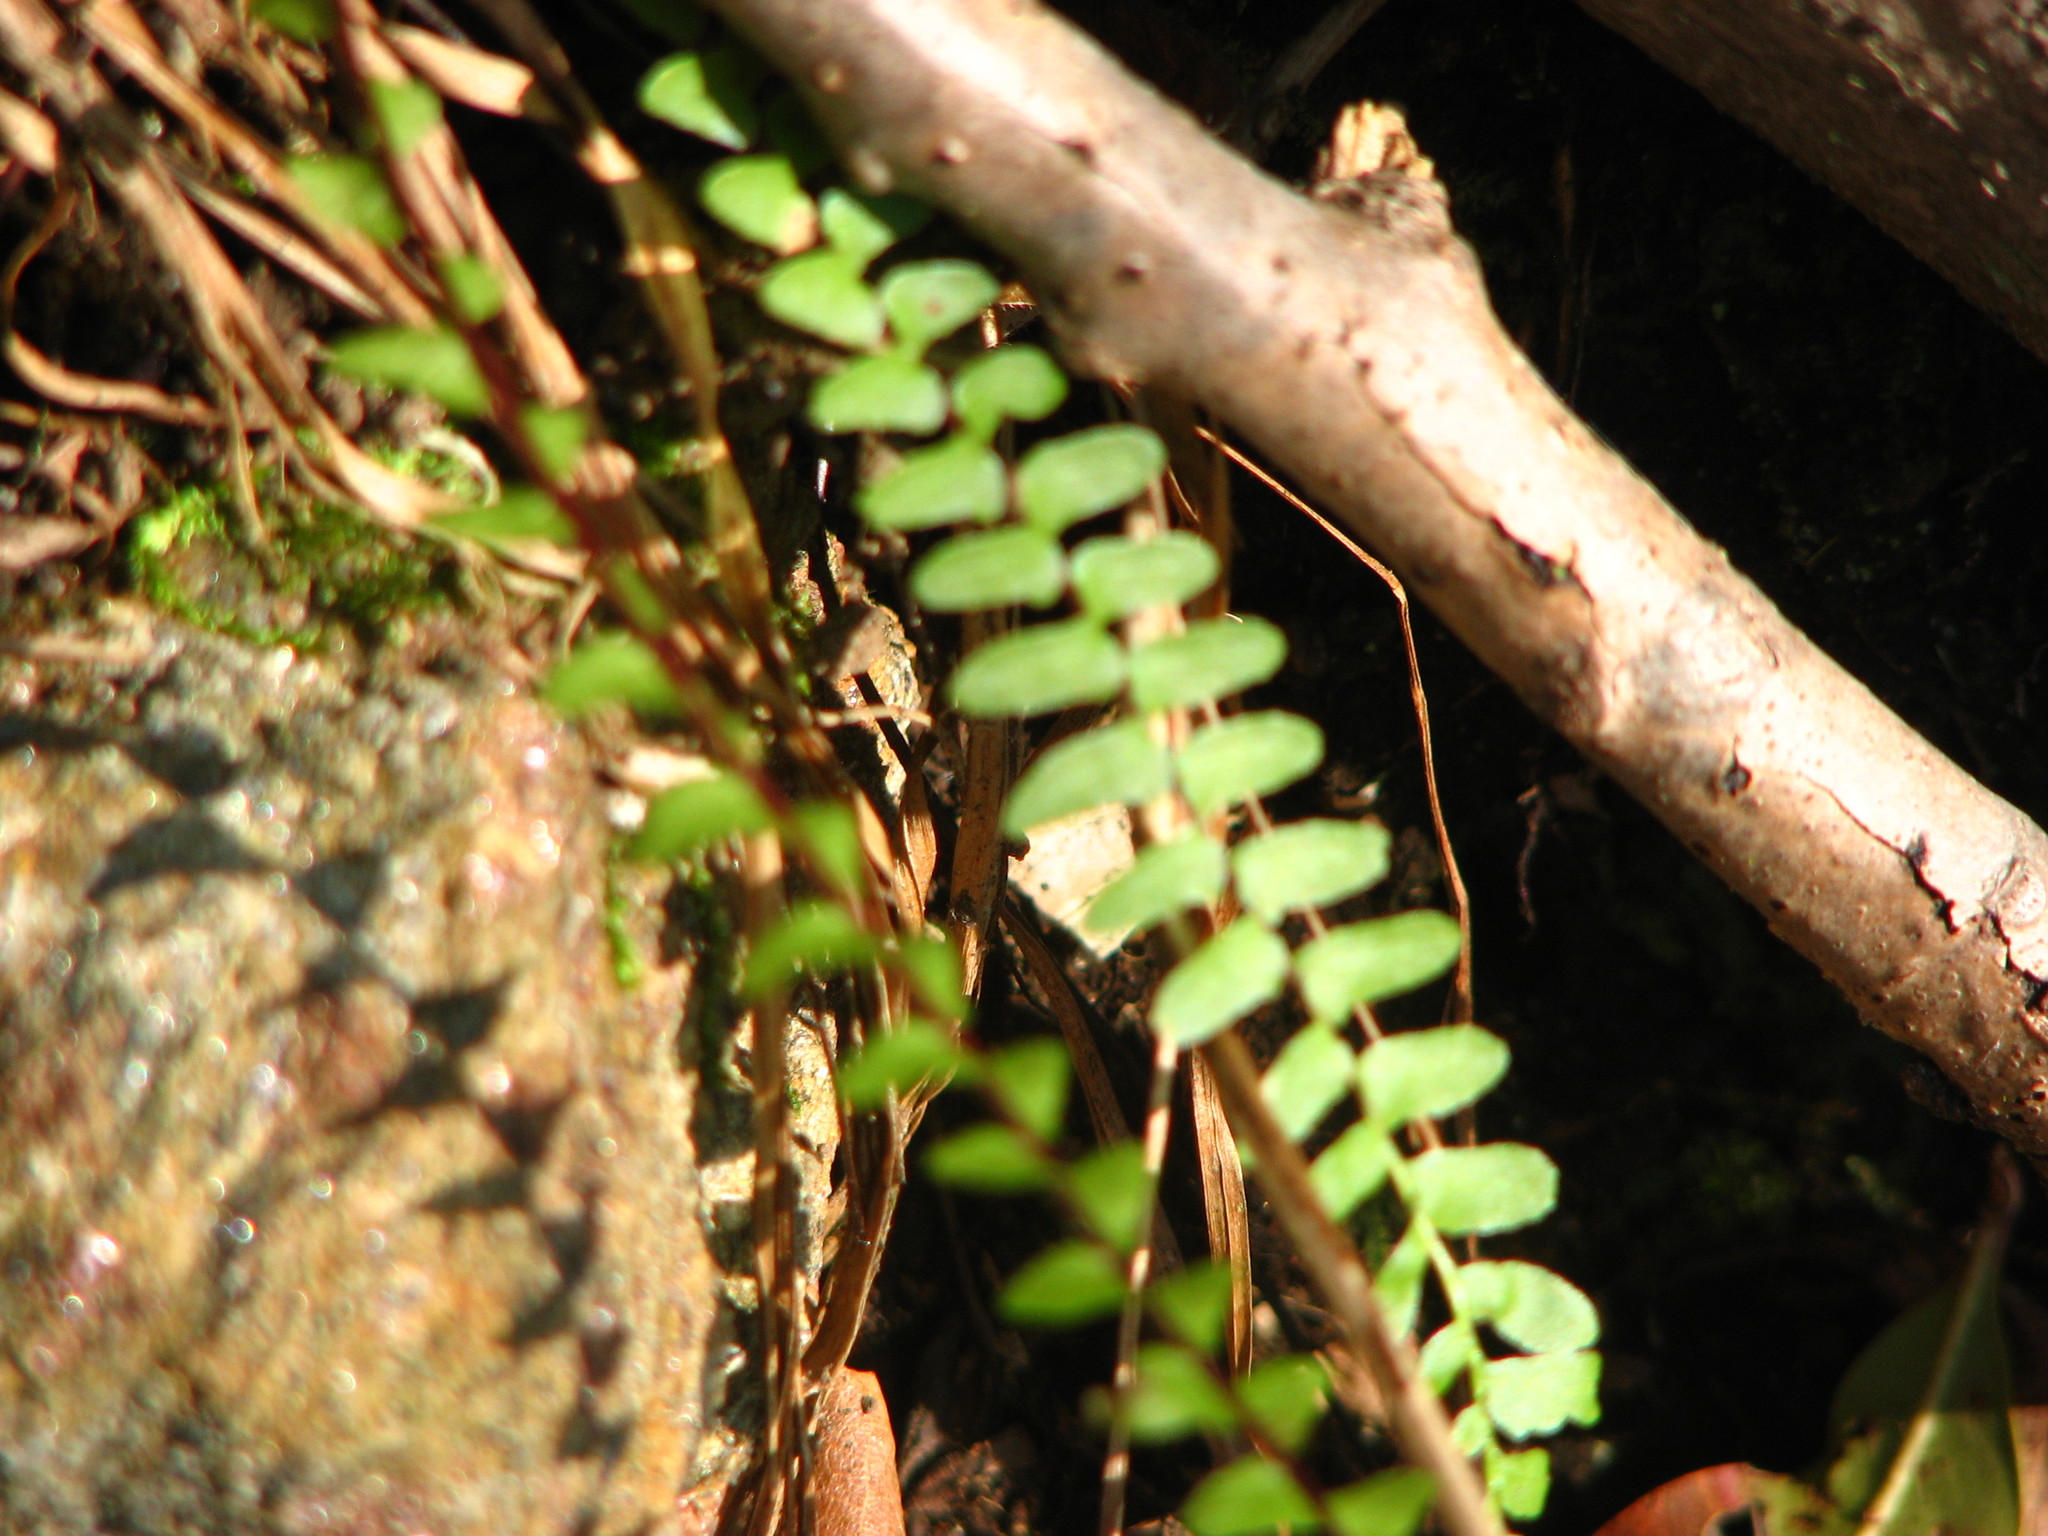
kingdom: Plantae
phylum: Tracheophyta
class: Polypodiopsida
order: Polypodiales
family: Aspleniaceae
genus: Asplenium
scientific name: Asplenium platyneuron
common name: Ebony spleenwort
